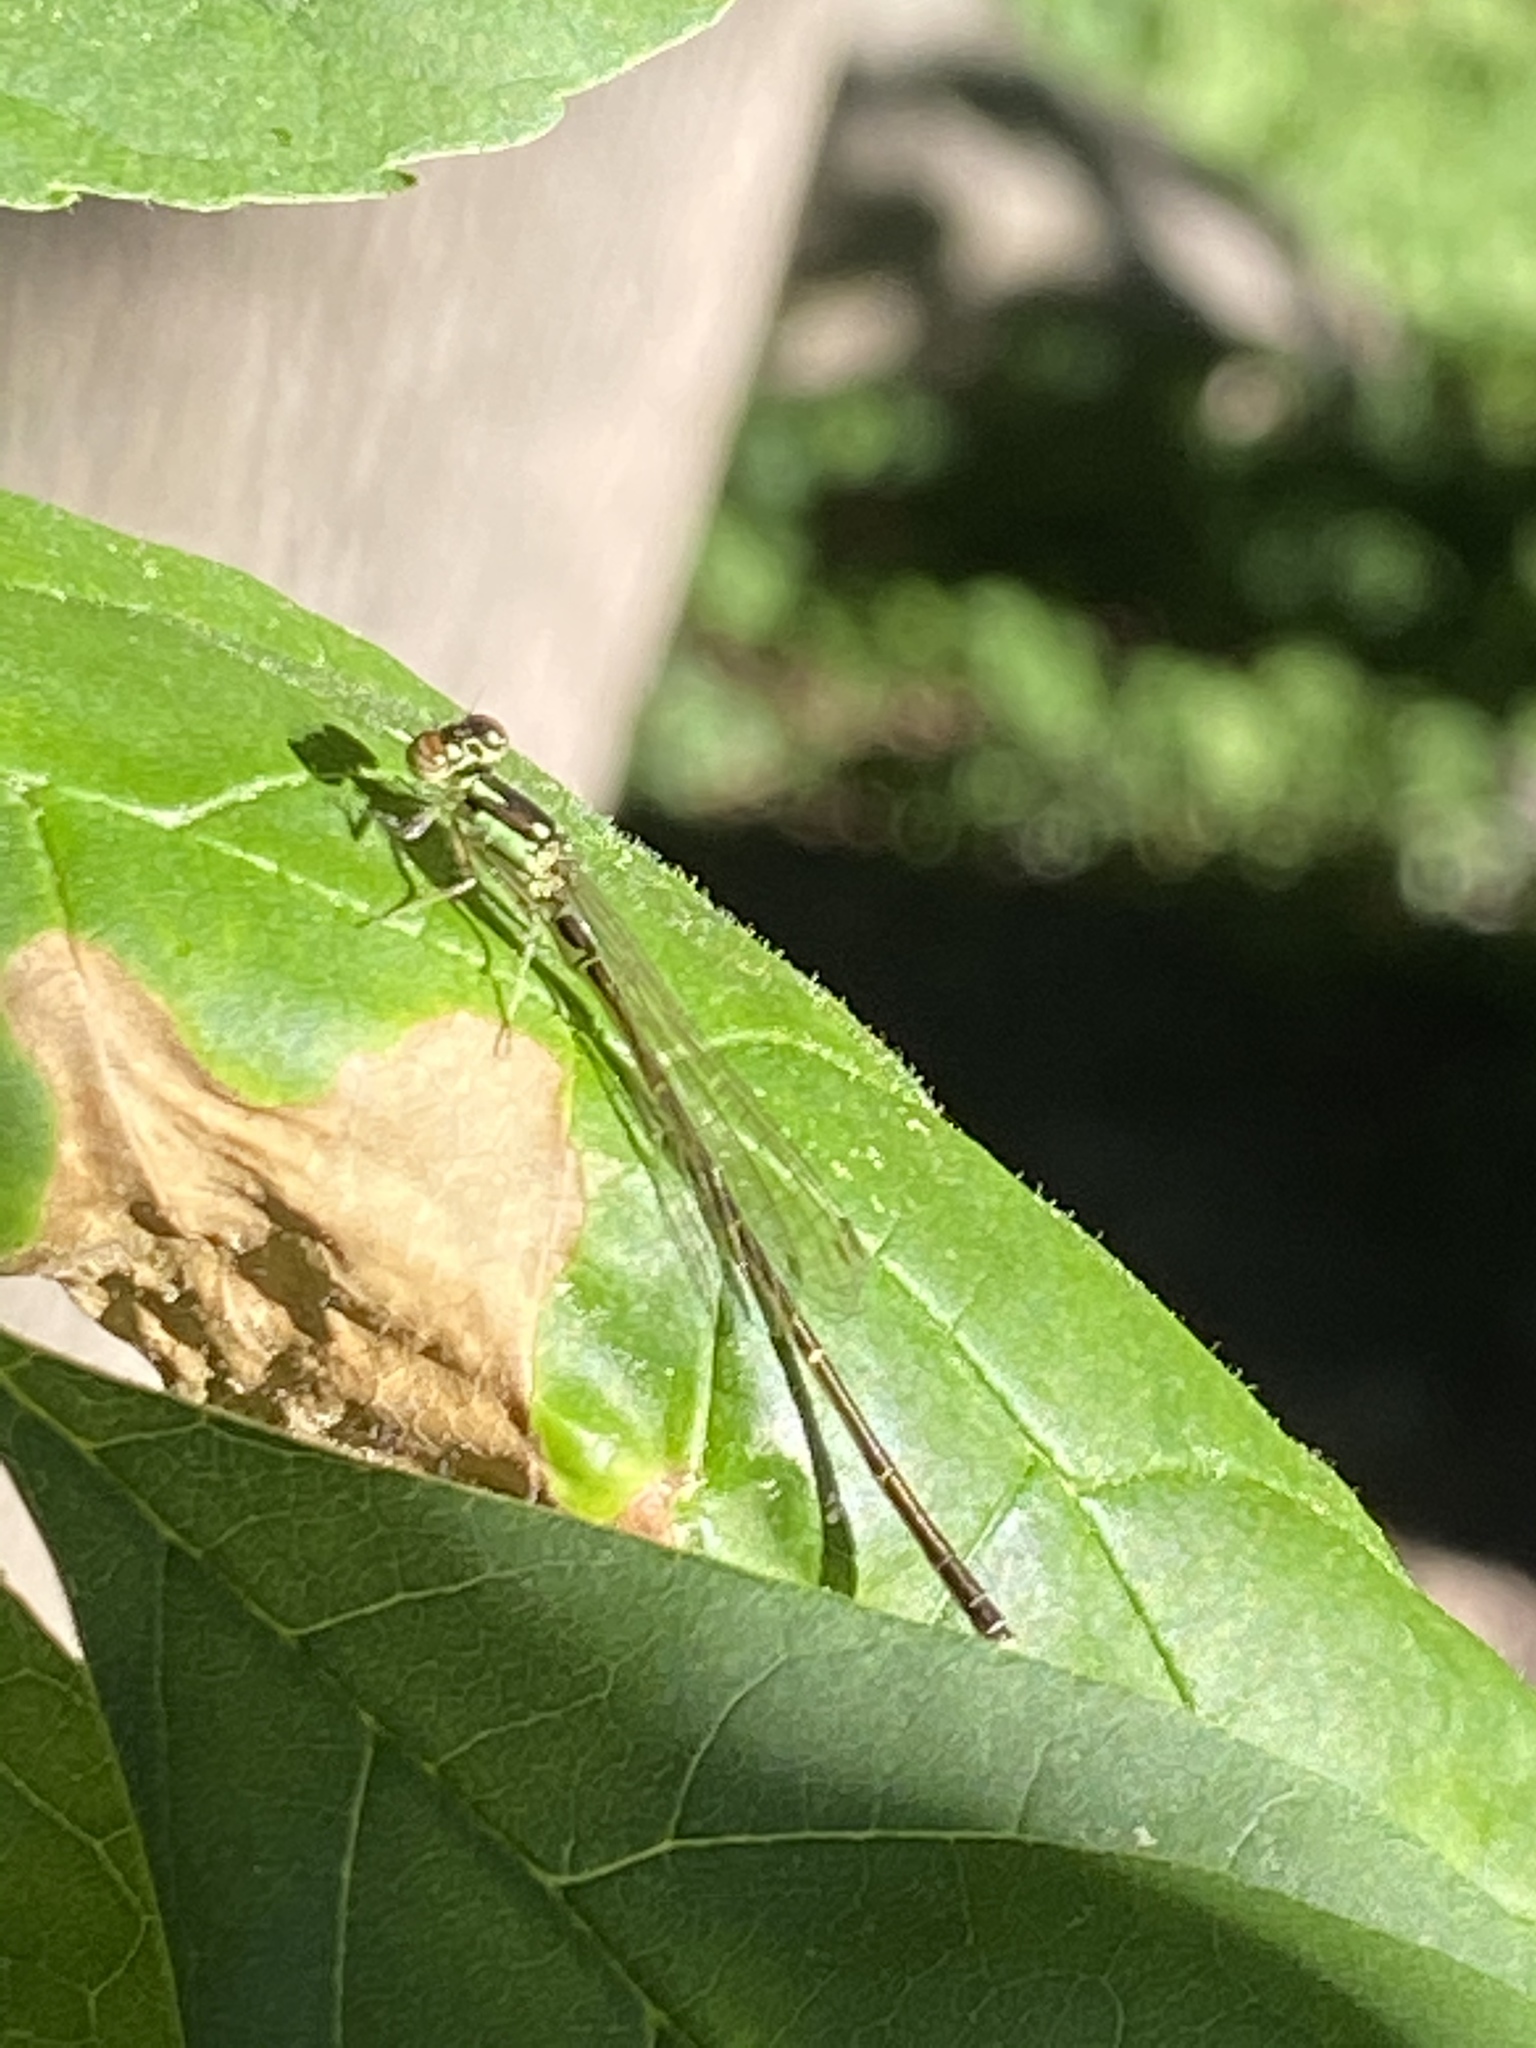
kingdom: Animalia
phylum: Arthropoda
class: Insecta
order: Odonata
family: Coenagrionidae
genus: Ischnura
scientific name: Ischnura posita
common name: Fragile forktail
